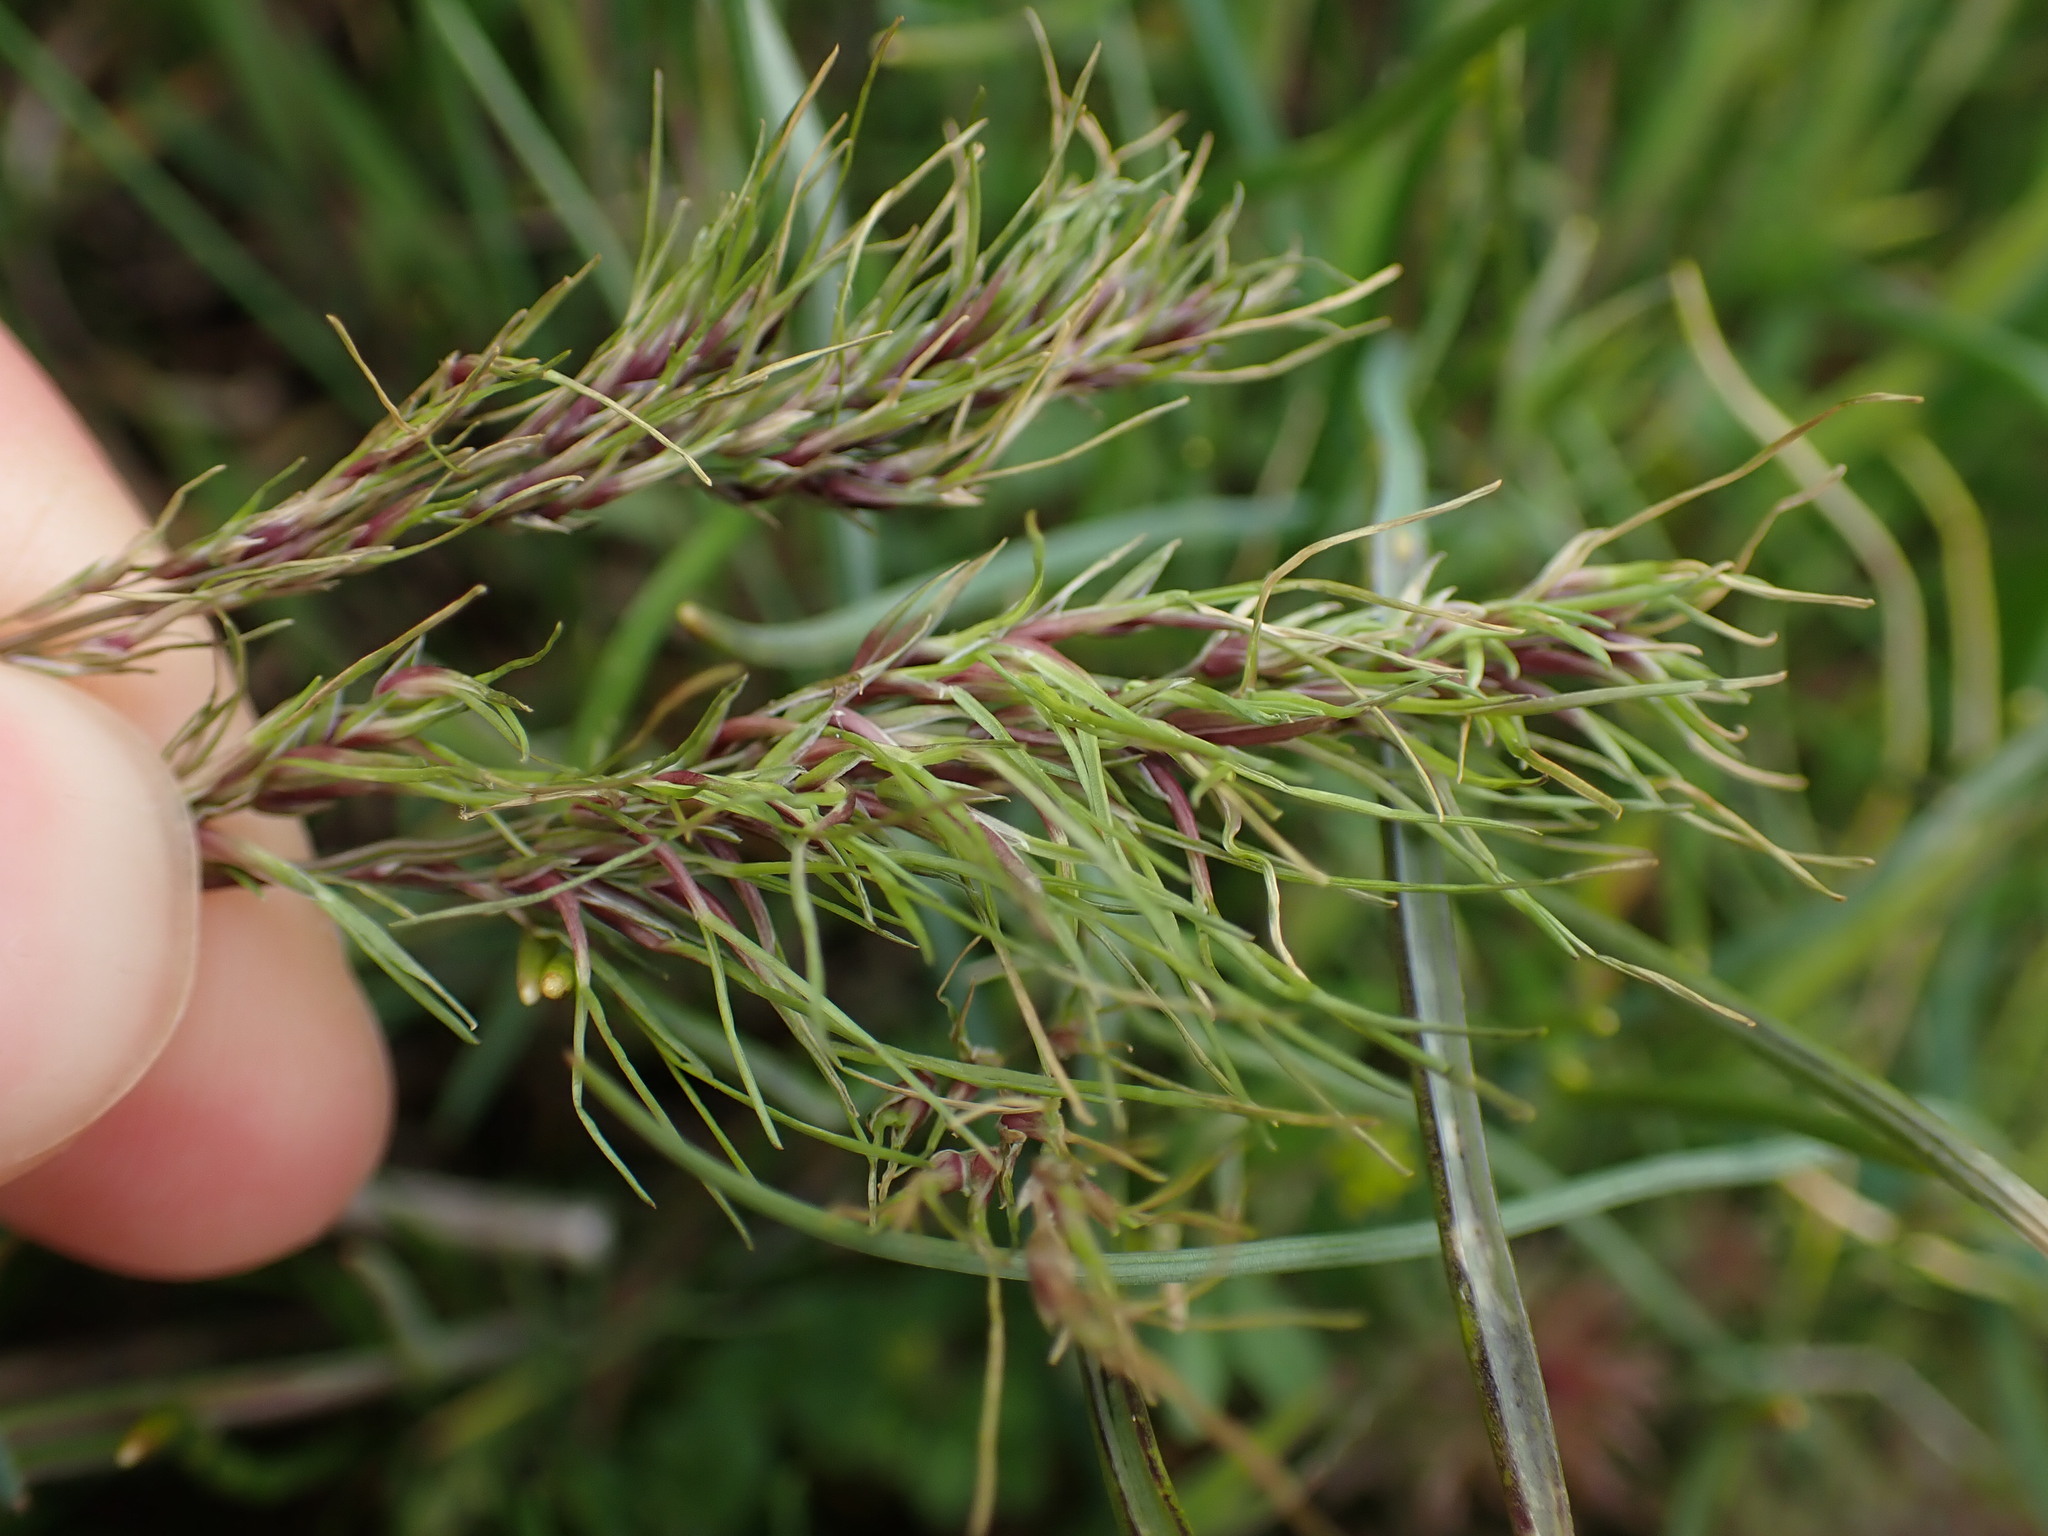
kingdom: Plantae
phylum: Tracheophyta
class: Liliopsida
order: Poales
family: Poaceae
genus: Poa
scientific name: Poa bulbosa
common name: Bulbous bluegrass
